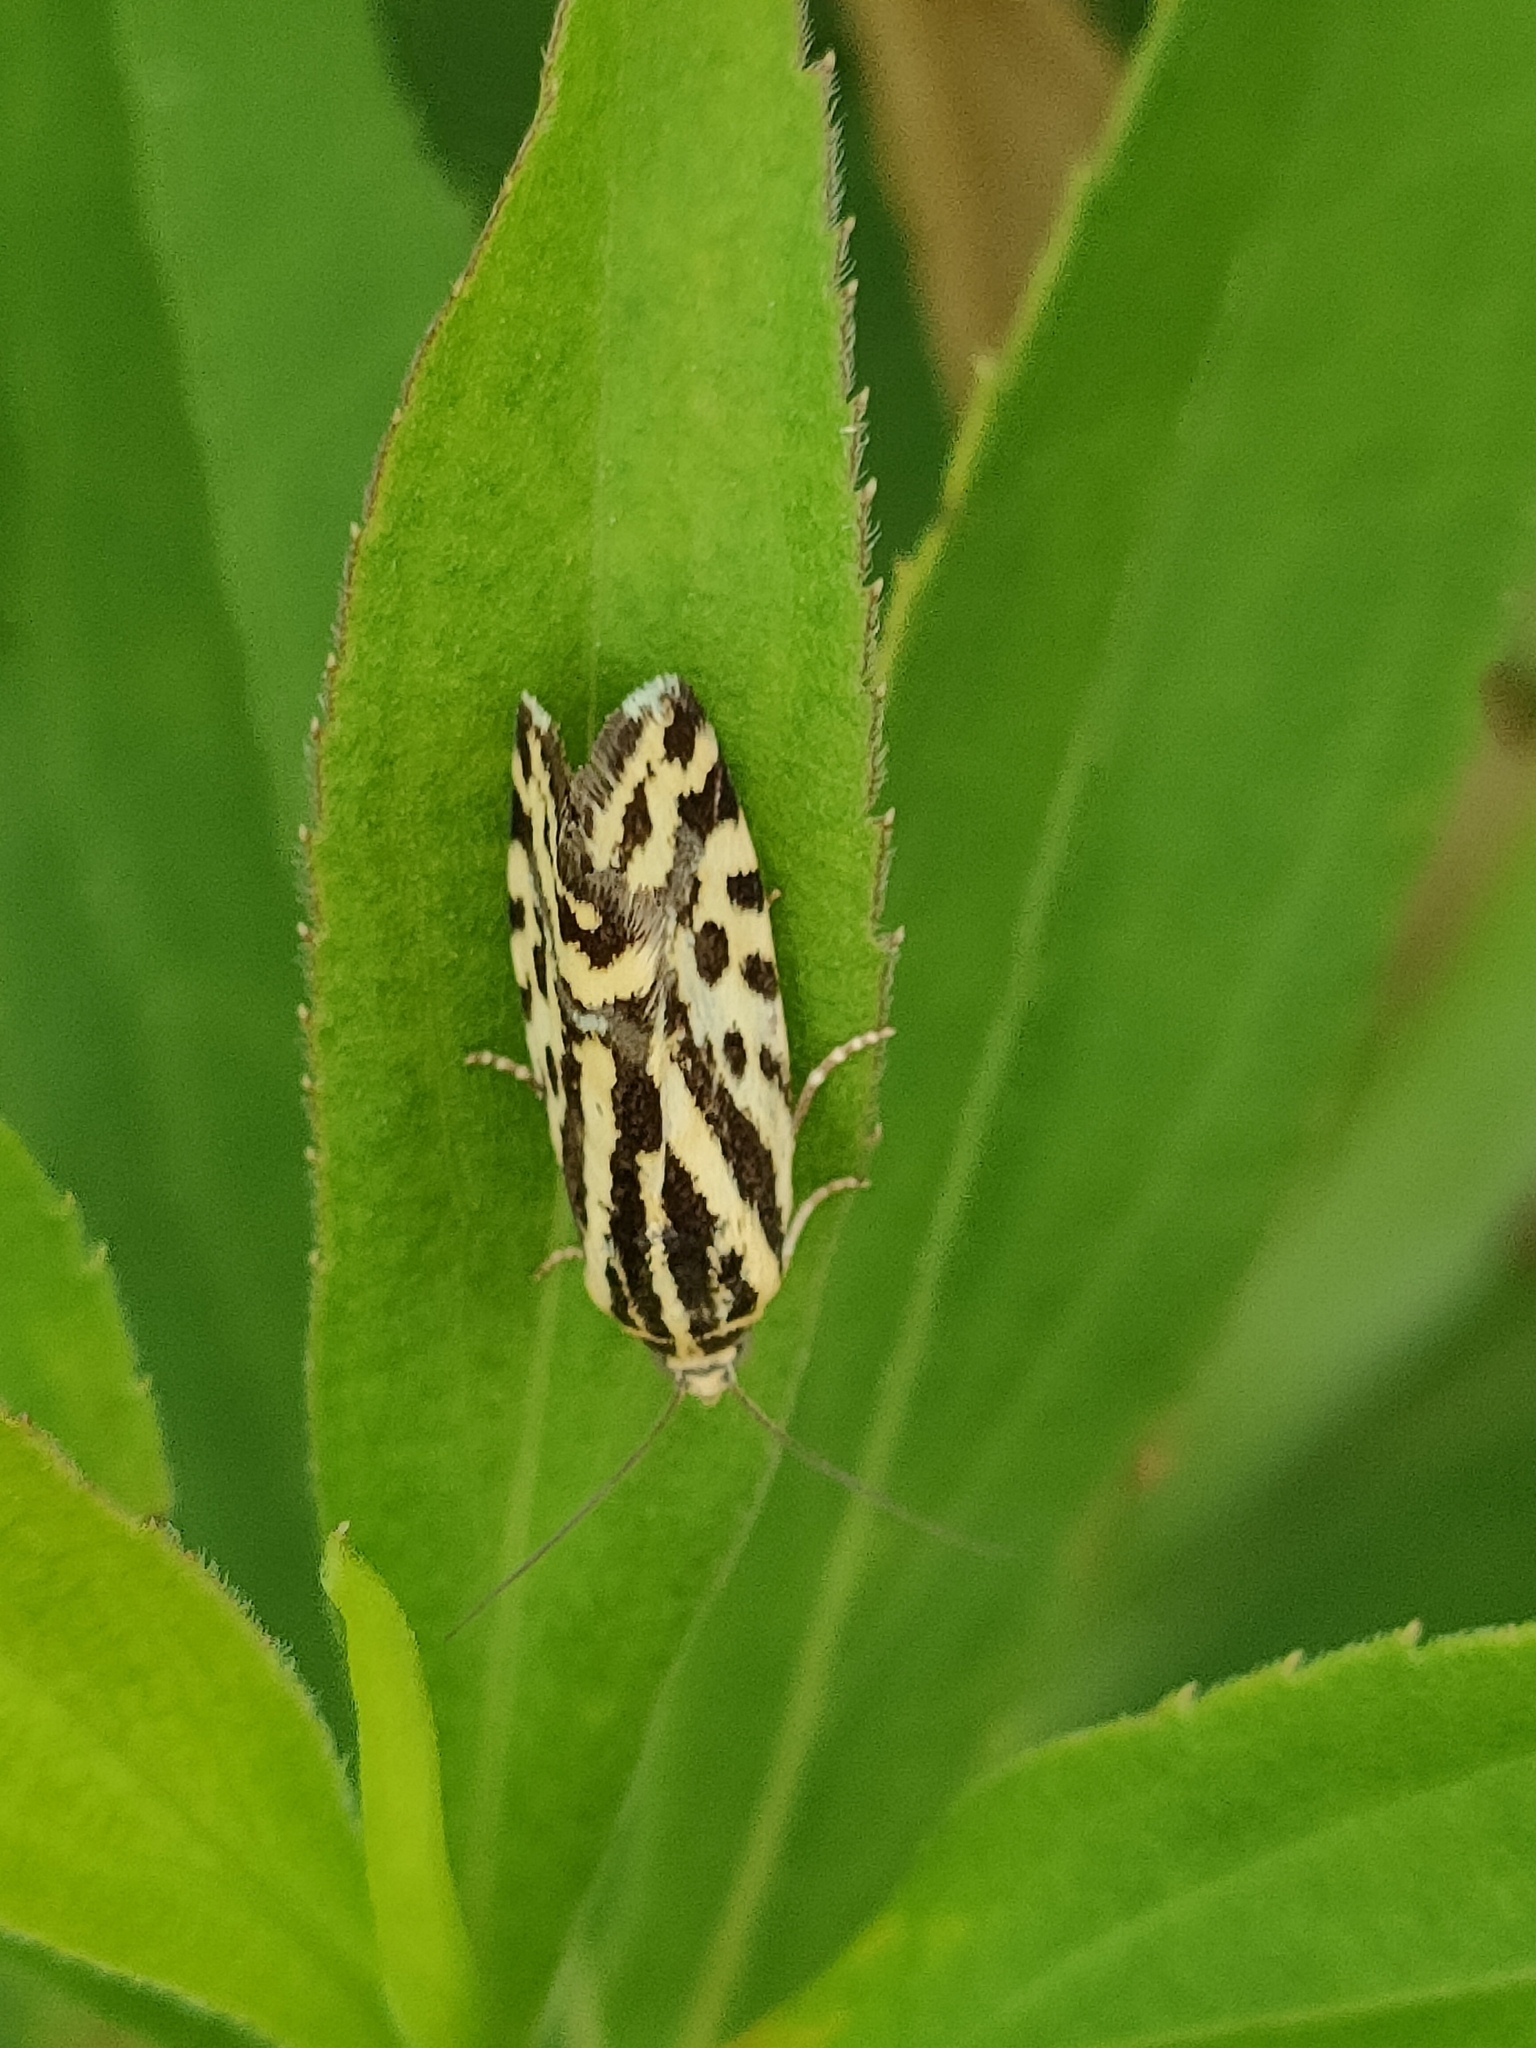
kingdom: Animalia
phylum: Arthropoda
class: Insecta
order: Lepidoptera
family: Noctuidae
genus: Acontia
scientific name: Acontia trabealis
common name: Spotted sulphur
